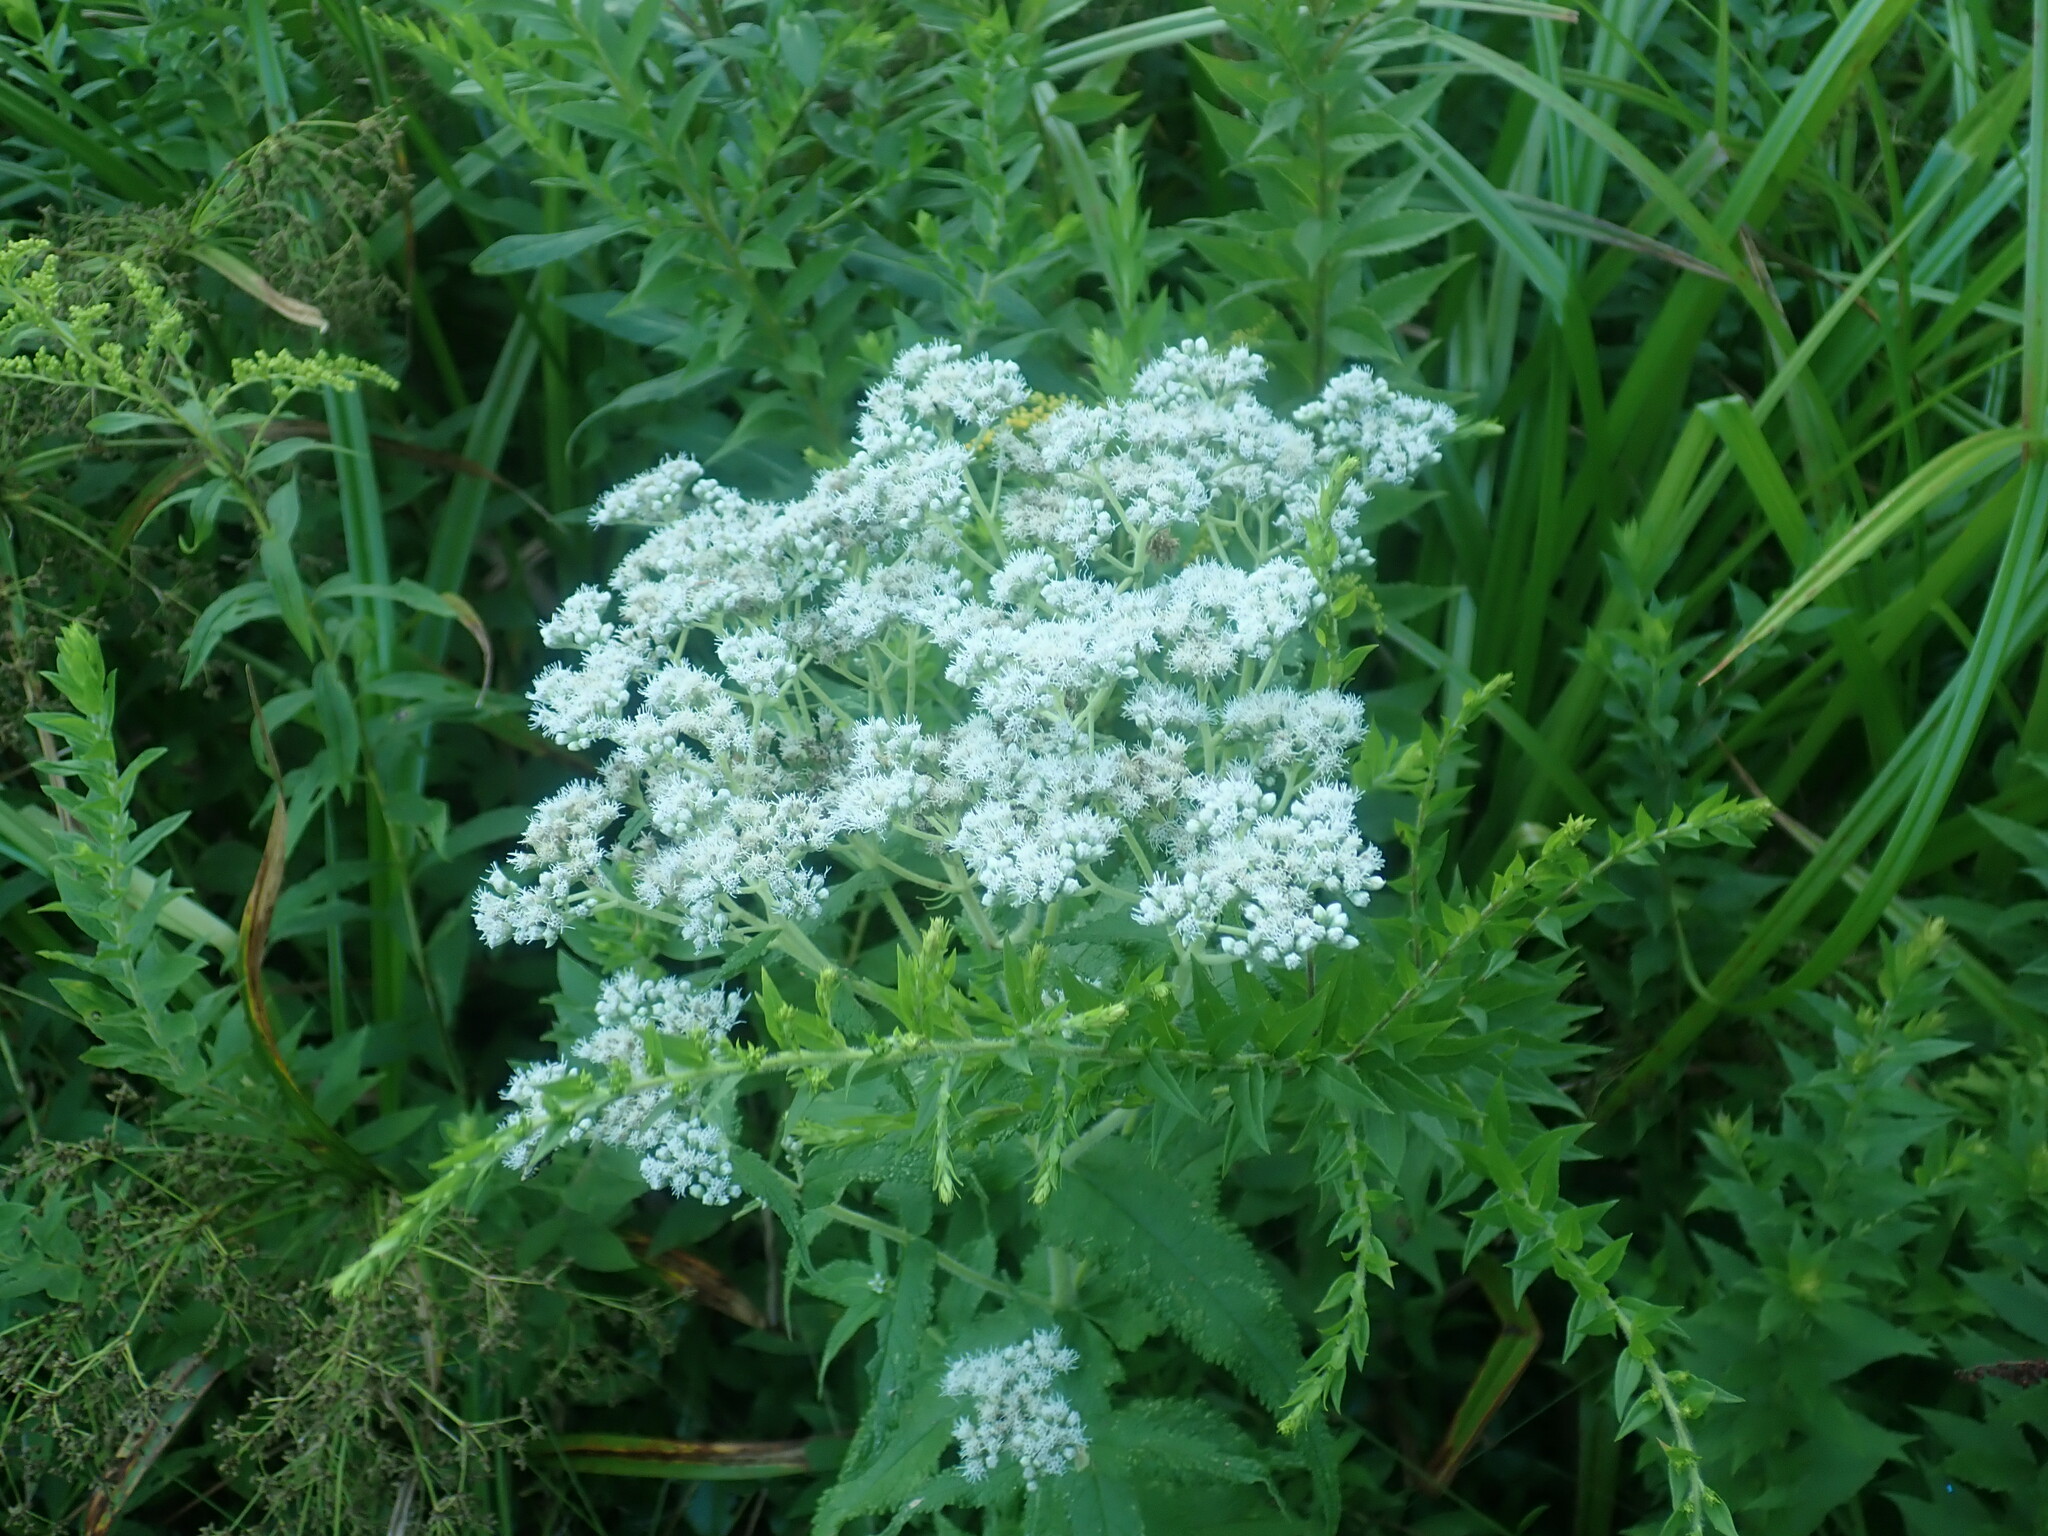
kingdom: Plantae
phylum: Tracheophyta
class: Magnoliopsida
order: Asterales
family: Asteraceae
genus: Eupatorium
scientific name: Eupatorium perfoliatum
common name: Boneset
